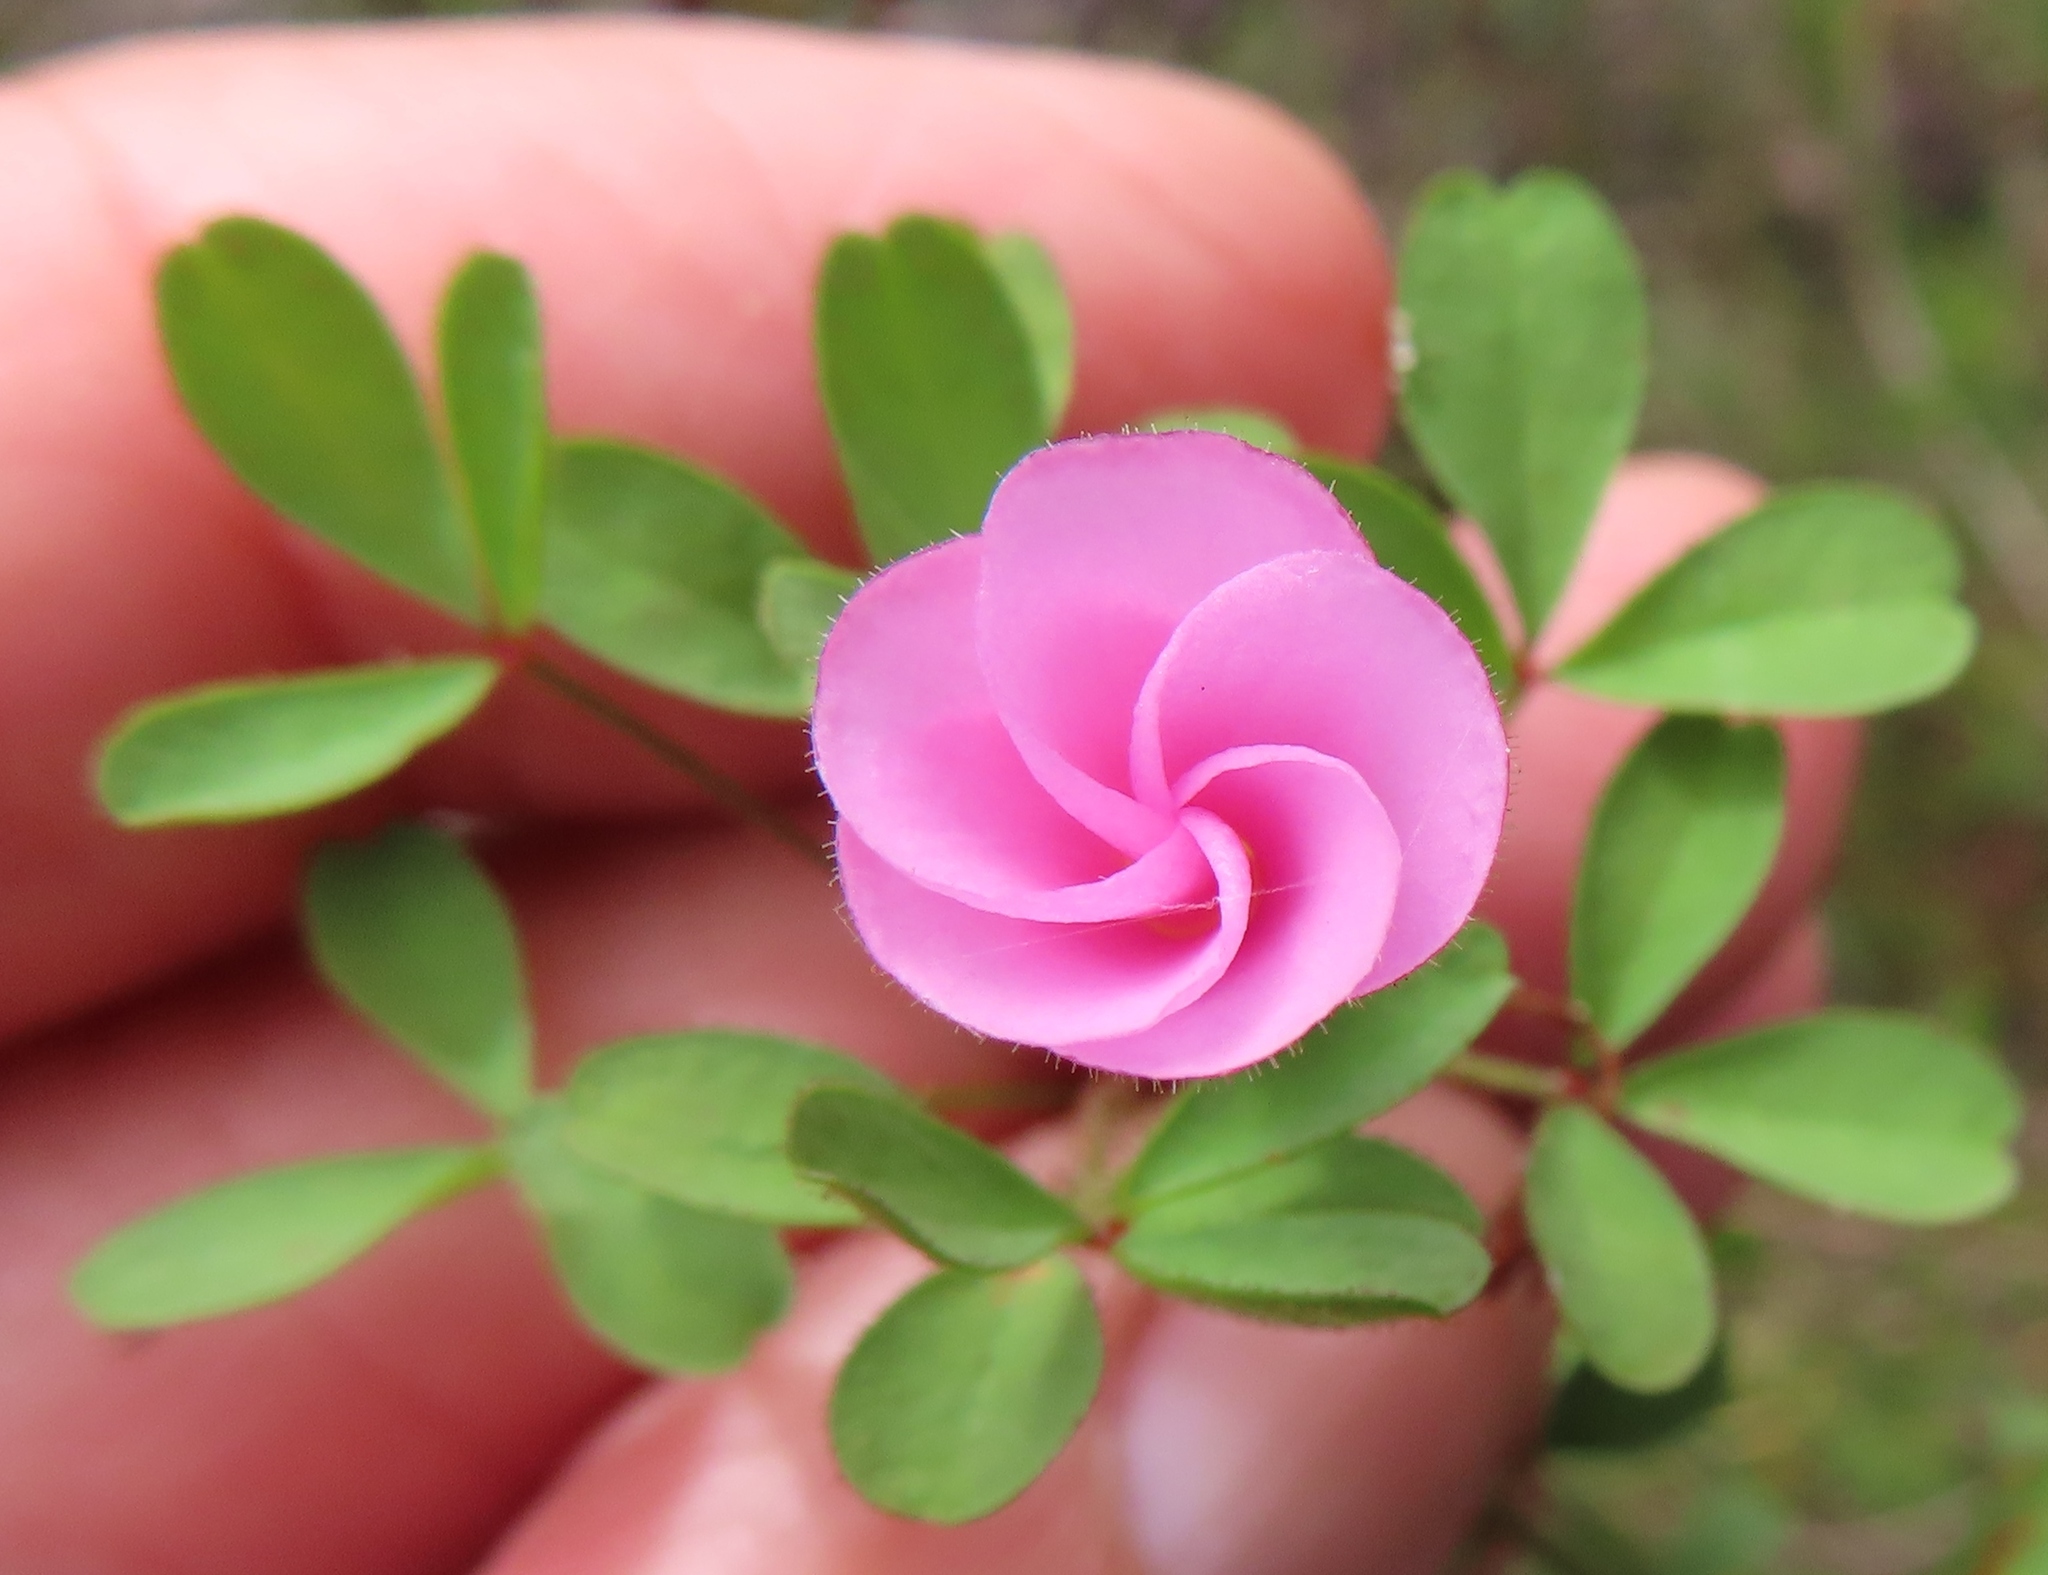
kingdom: Plantae
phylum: Tracheophyta
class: Magnoliopsida
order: Oxalidales
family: Oxalidaceae
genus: Oxalis
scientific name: Oxalis multicaulis
